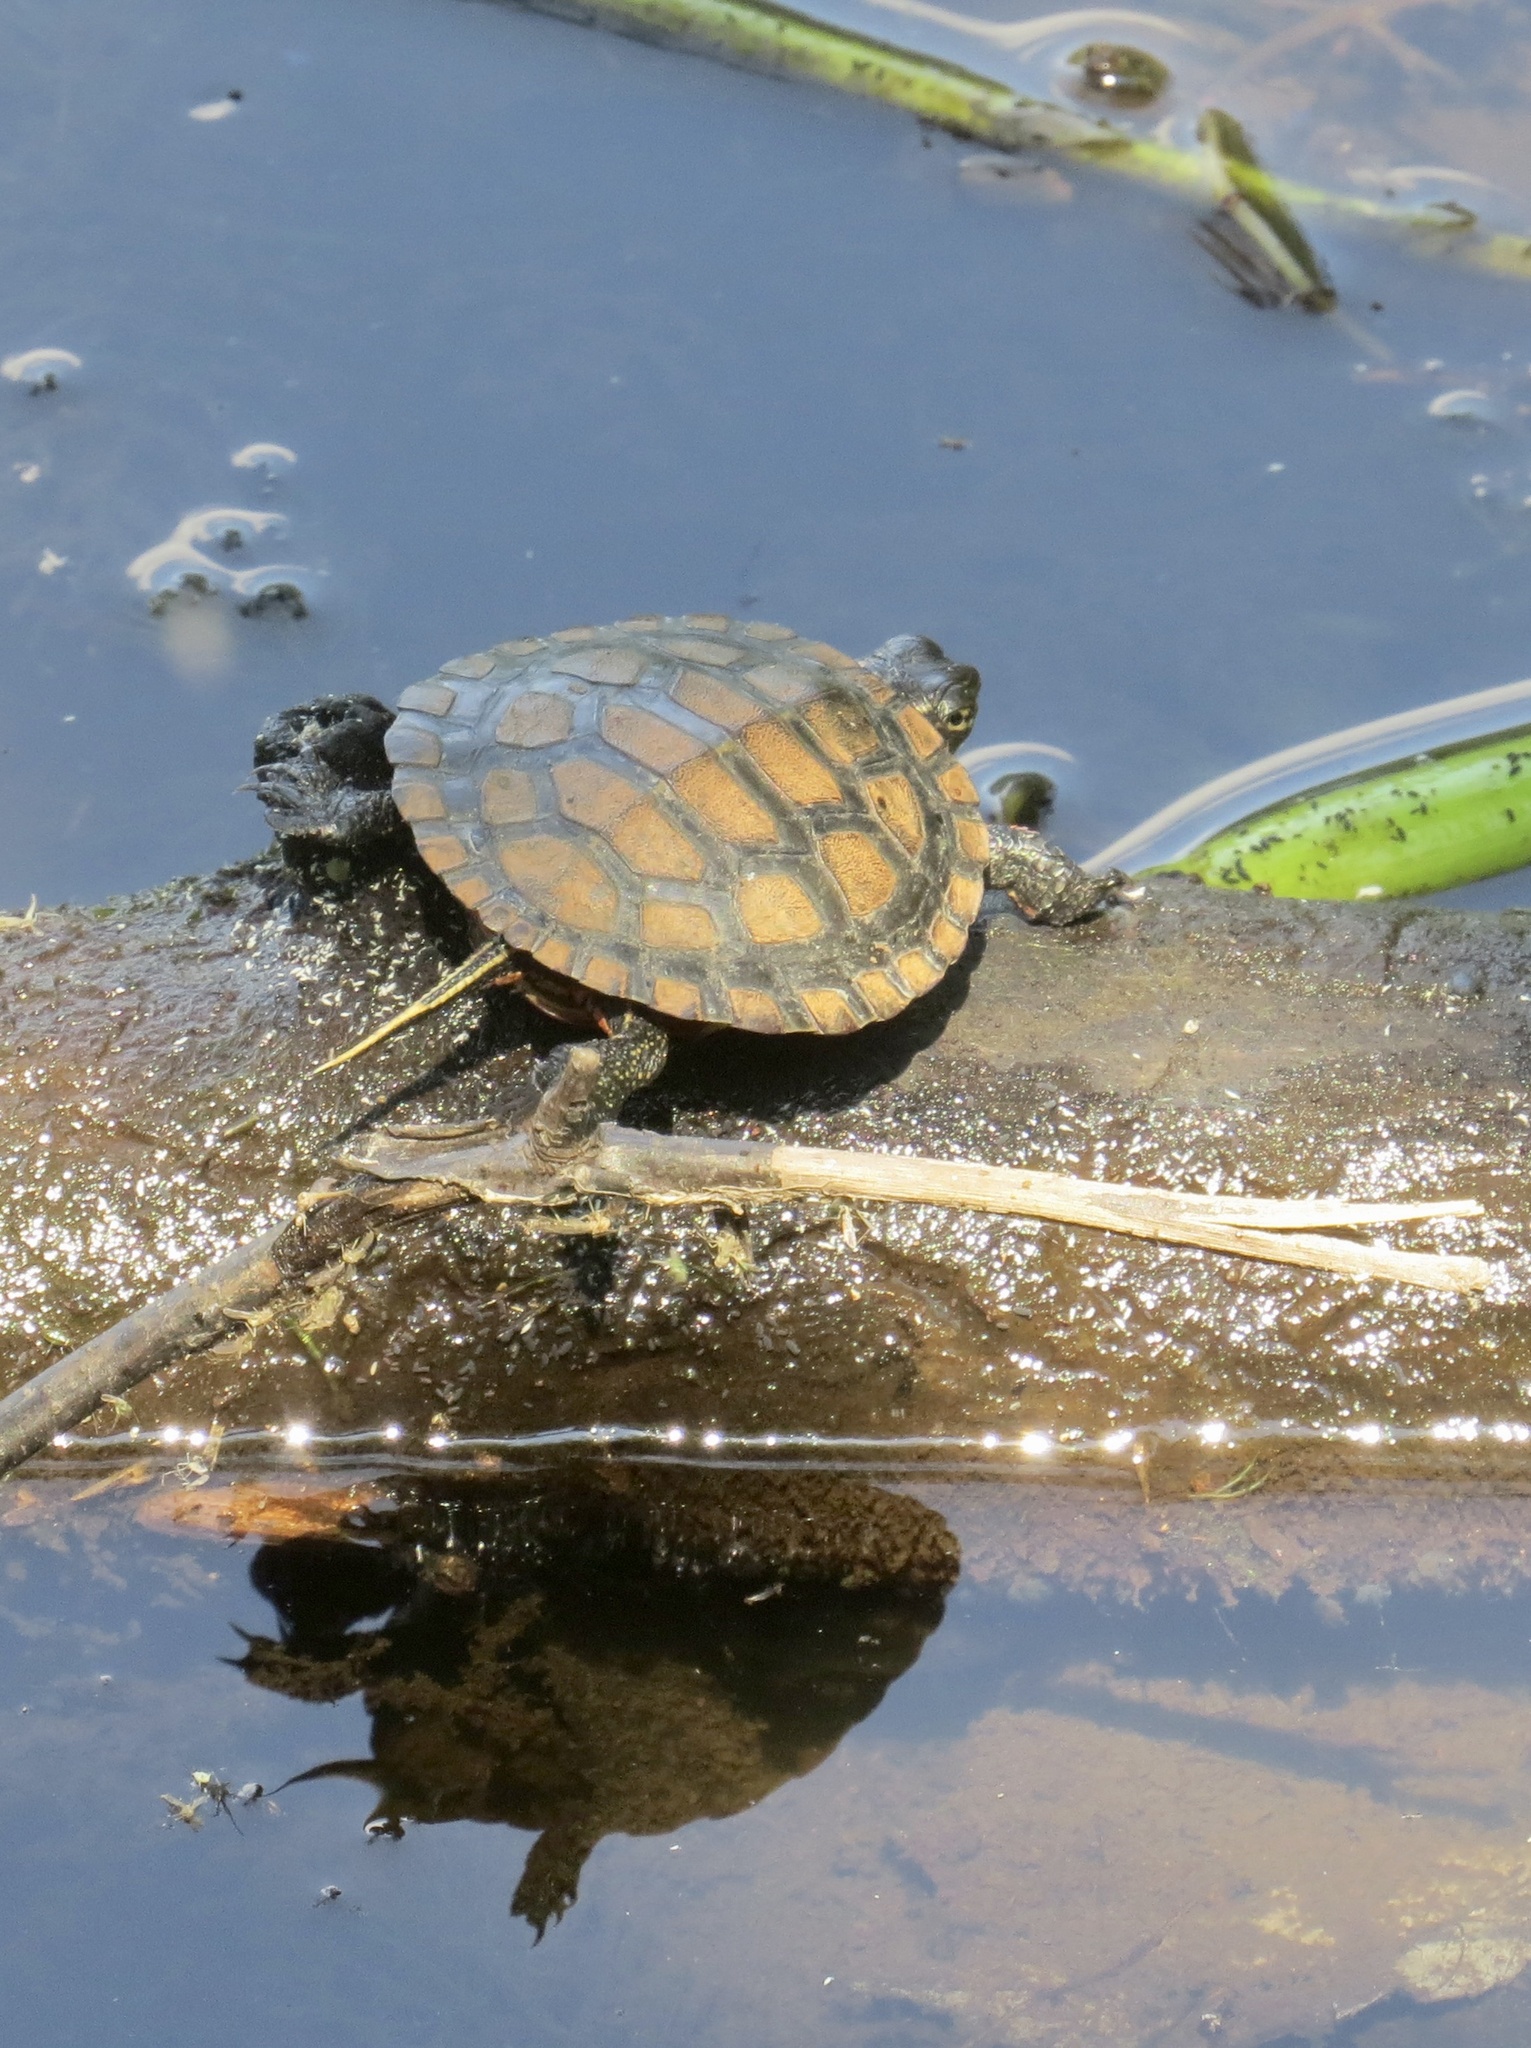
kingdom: Animalia
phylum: Chordata
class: Testudines
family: Emydidae
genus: Chrysemys
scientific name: Chrysemys picta
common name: Painted turtle
